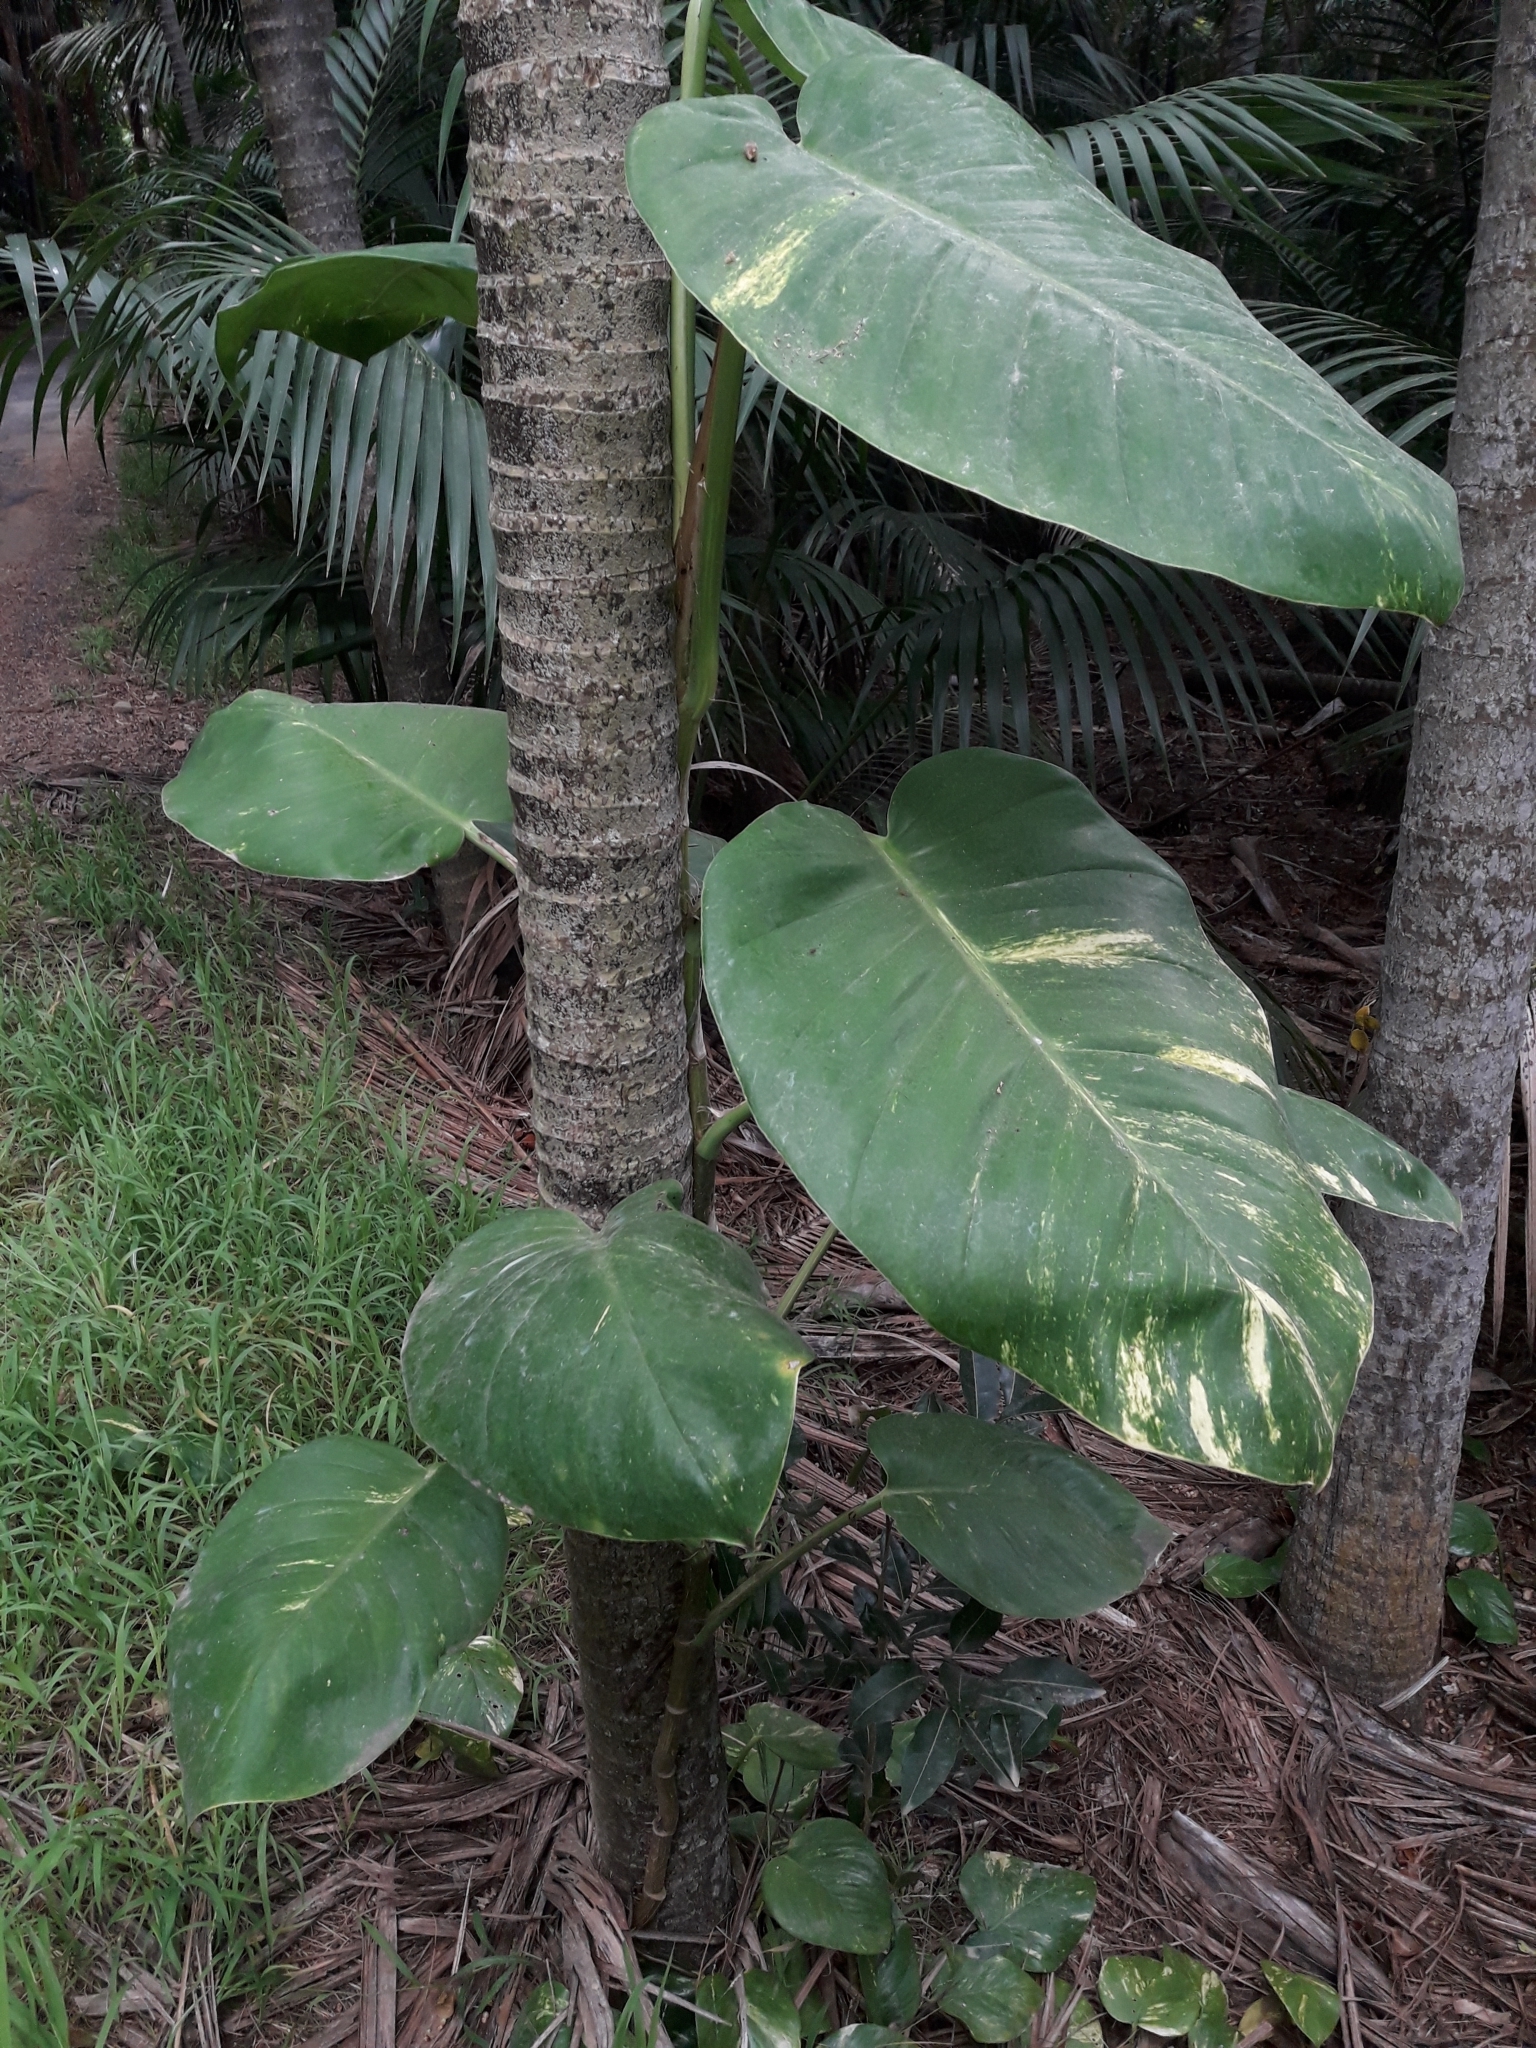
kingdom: Plantae
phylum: Tracheophyta
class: Liliopsida
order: Alismatales
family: Araceae
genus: Epipremnum
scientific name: Epipremnum aureum
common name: Golden hunter's-robe
